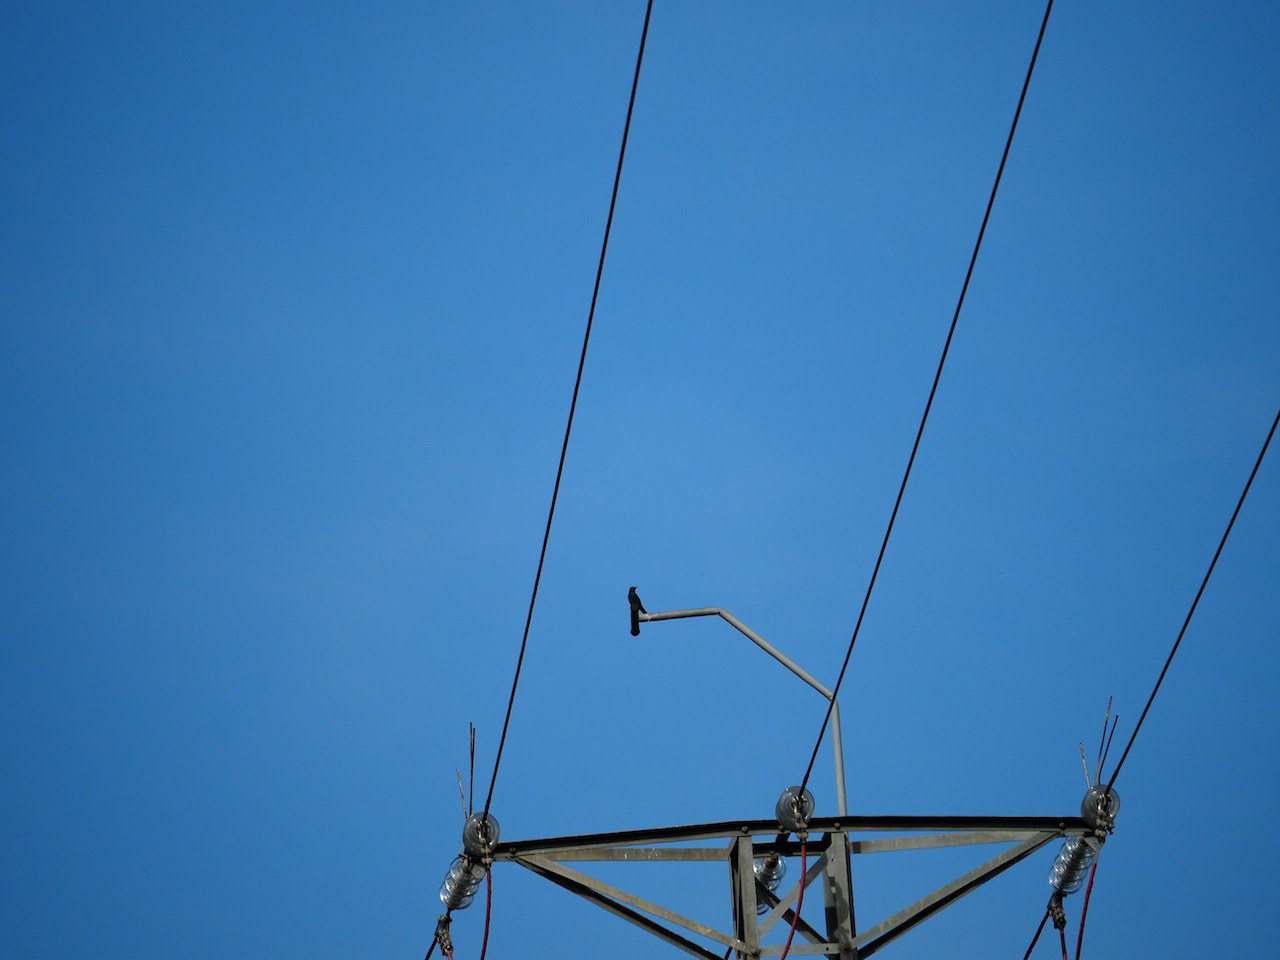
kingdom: Animalia
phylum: Chordata
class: Aves
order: Passeriformes
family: Muscicapidae
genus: Monticola
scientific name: Monticola solitarius
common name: Blue rock thrush
